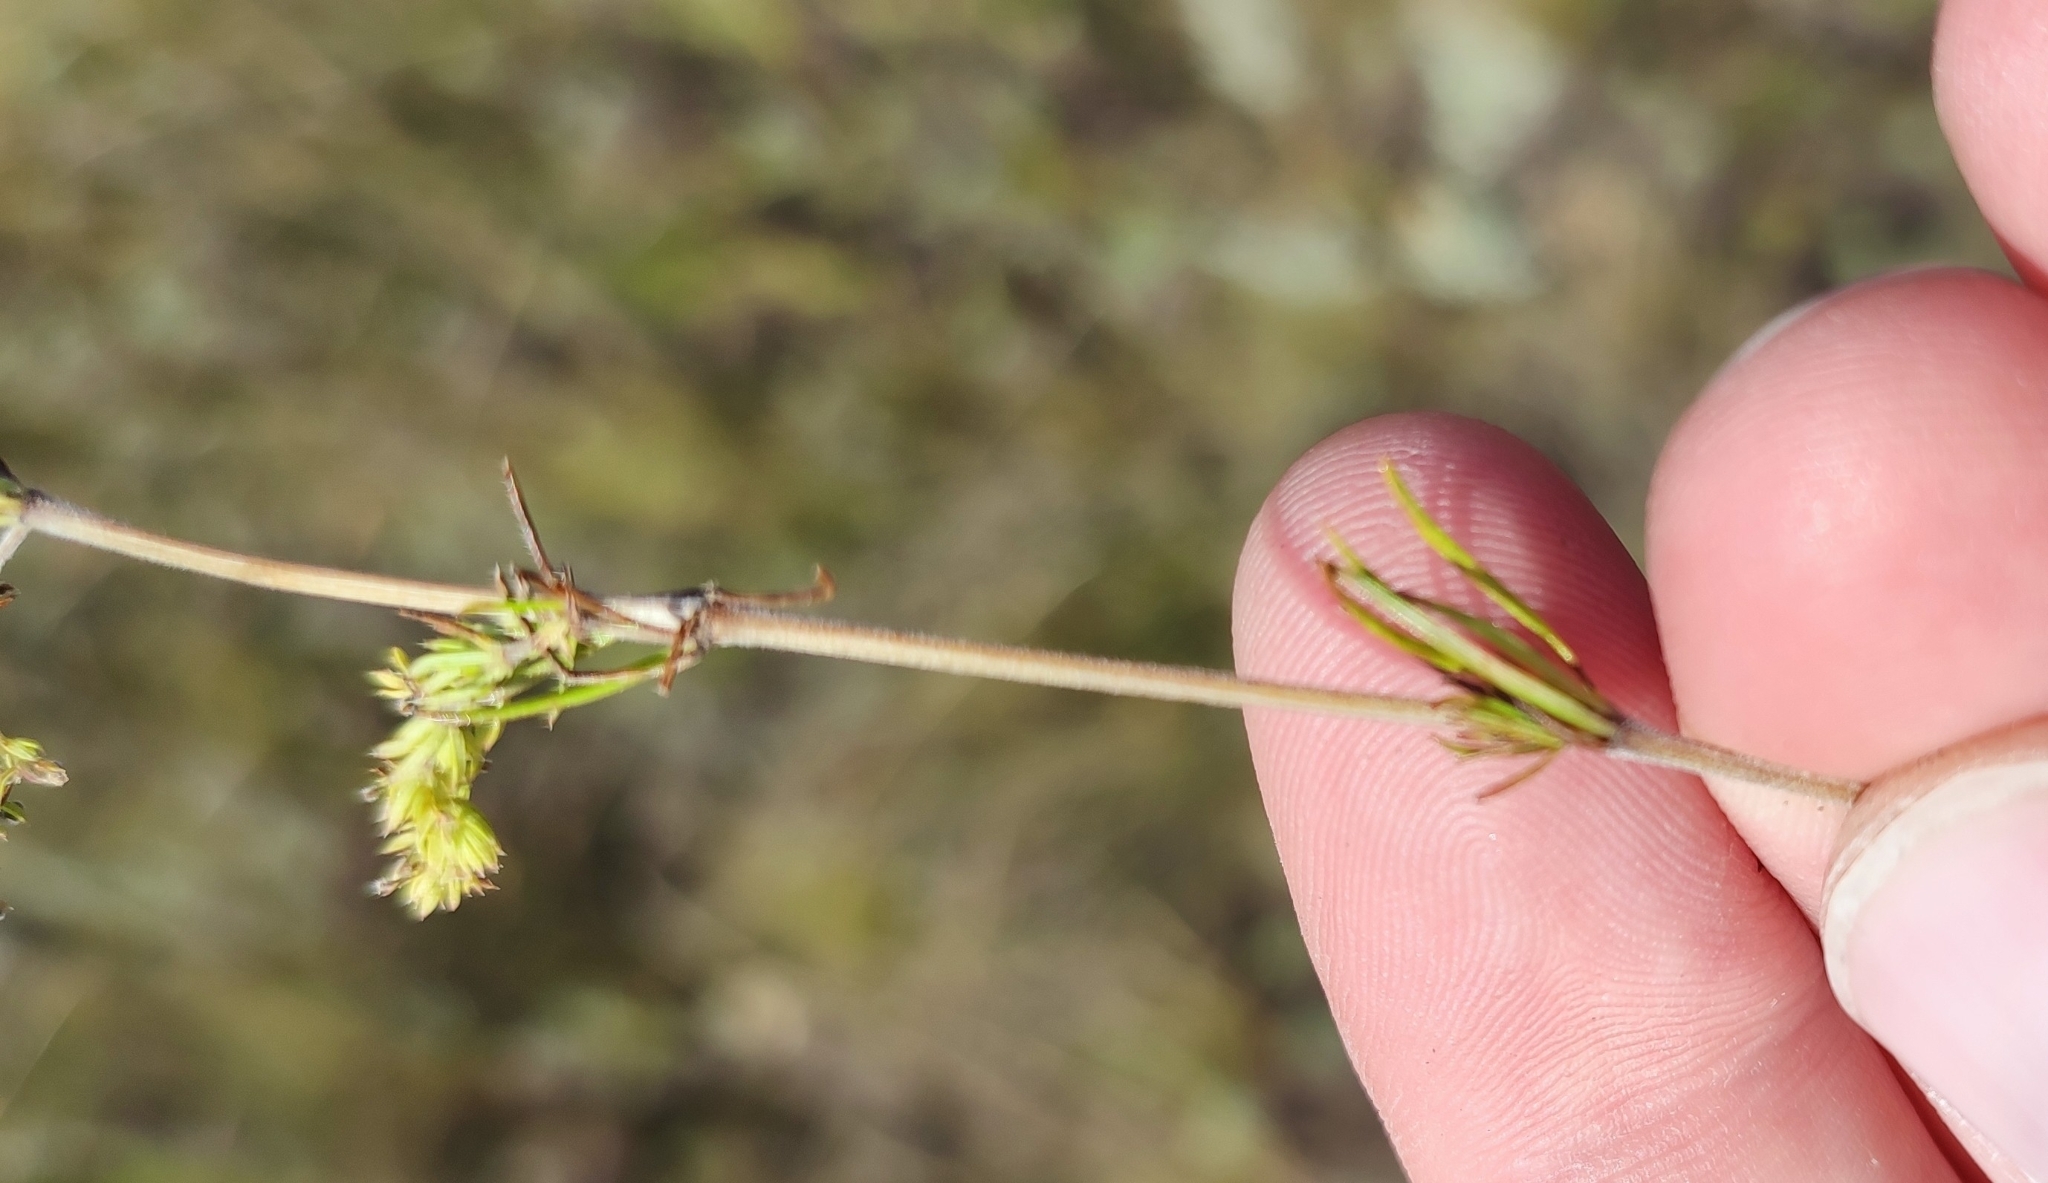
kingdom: Plantae
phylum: Tracheophyta
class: Magnoliopsida
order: Gentianales
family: Rubiaceae
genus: Galium
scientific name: Galium verum
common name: Lady's bedstraw
